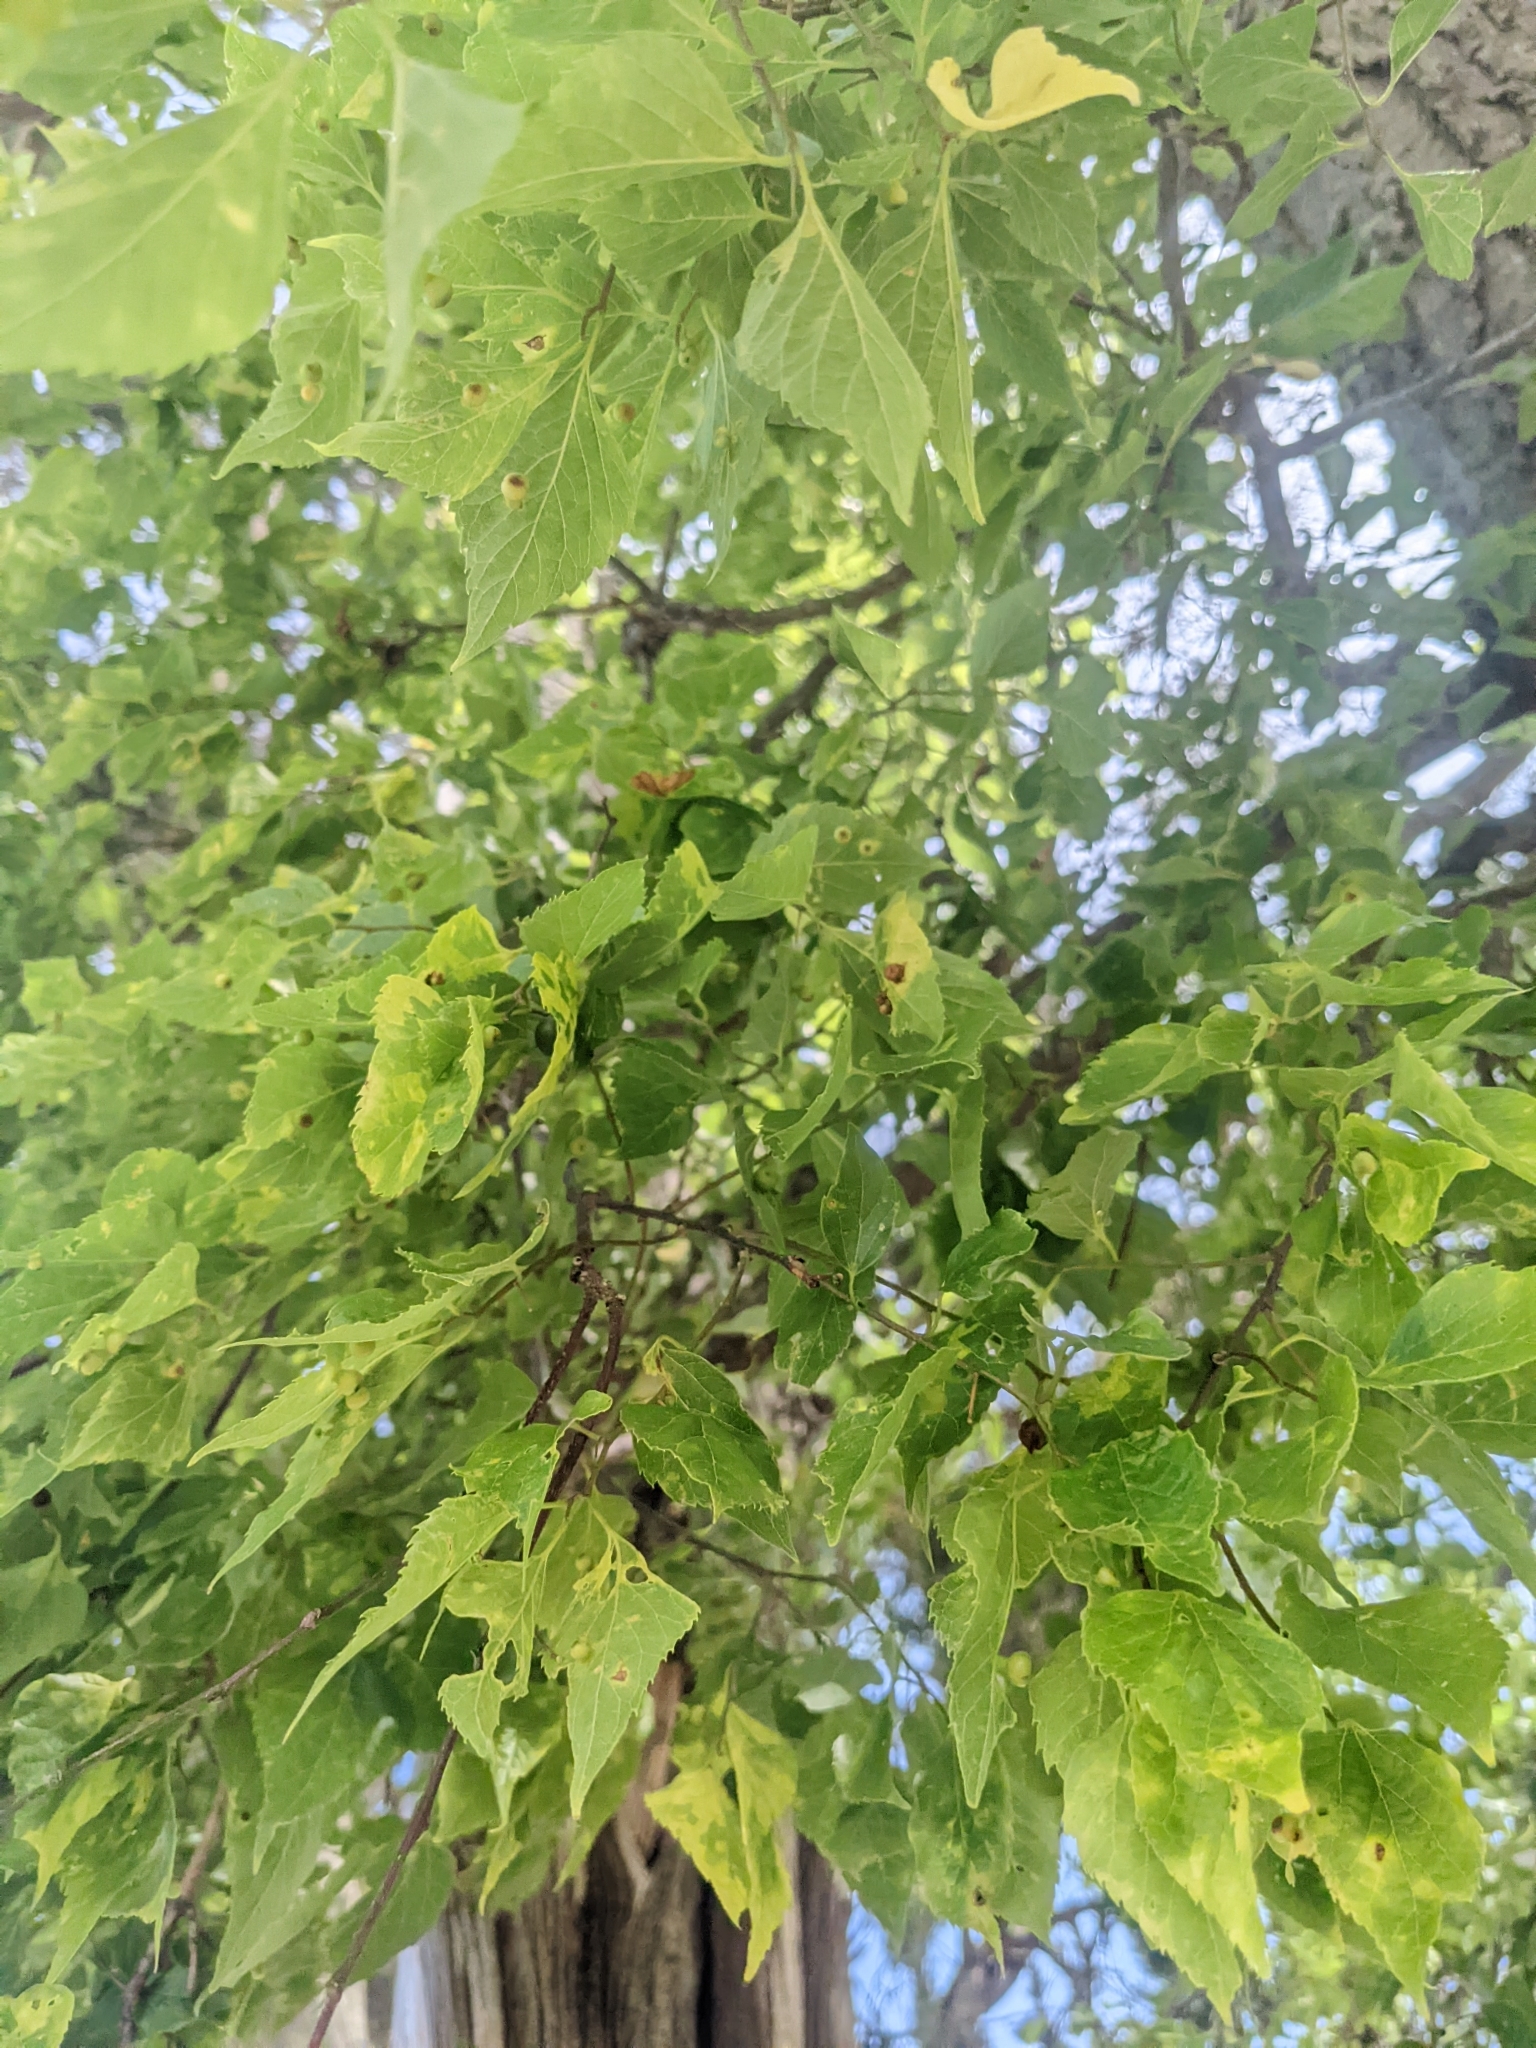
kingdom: Plantae
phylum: Tracheophyta
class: Magnoliopsida
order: Rosales
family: Cannabaceae
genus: Celtis
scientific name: Celtis occidentalis
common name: Common hackberry
